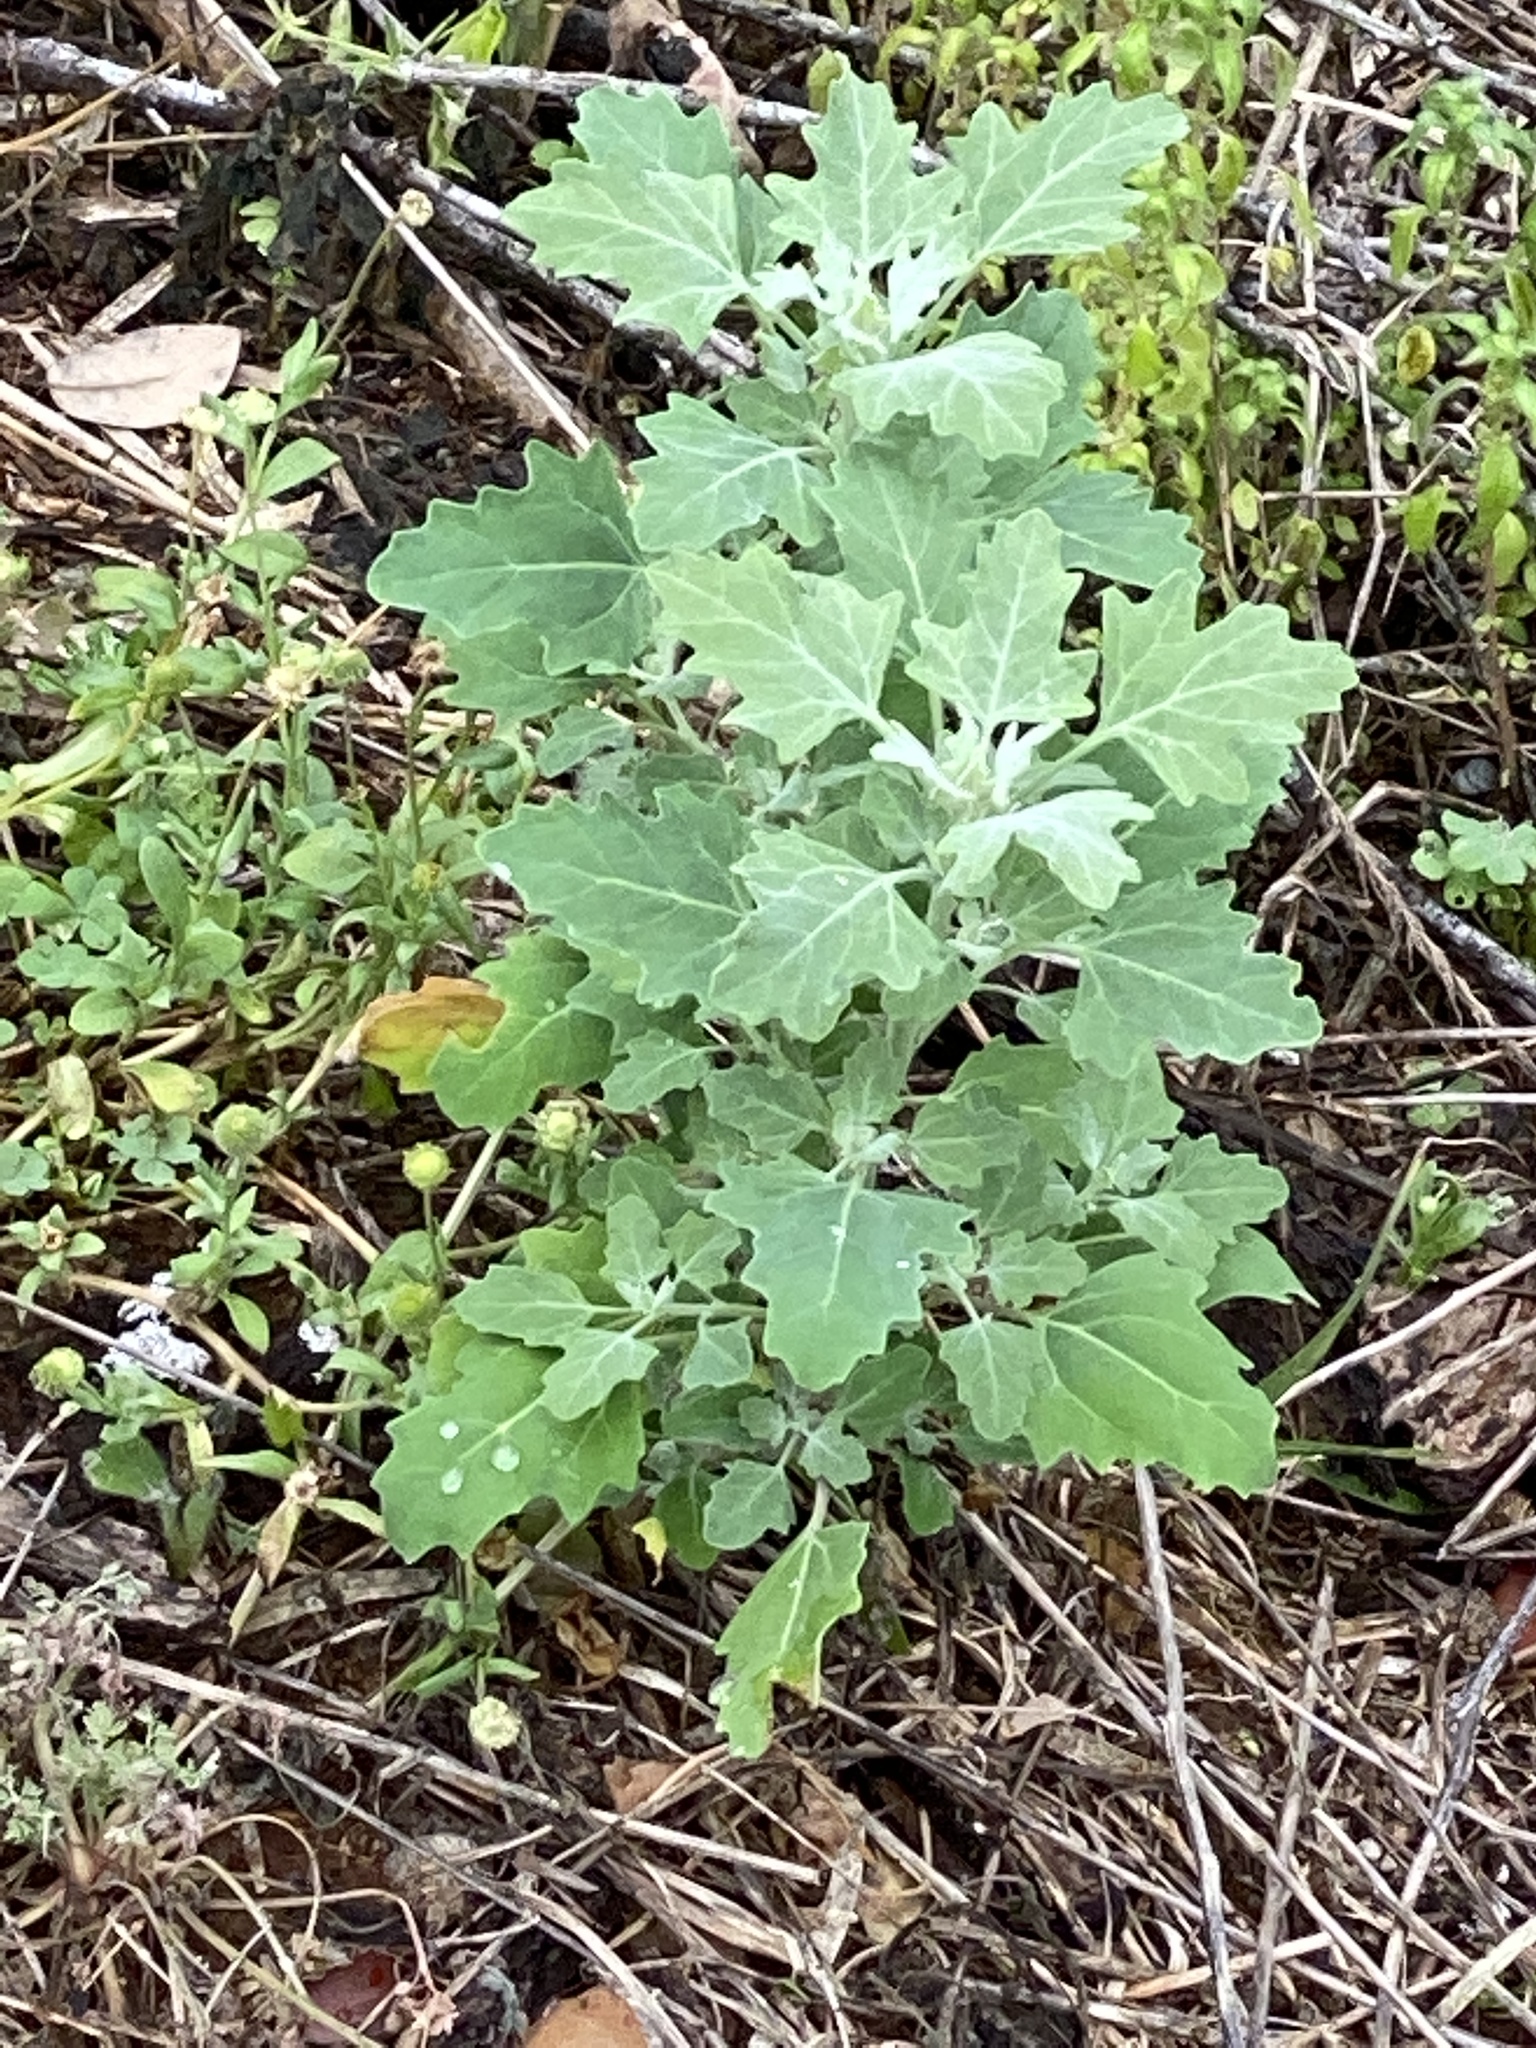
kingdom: Plantae
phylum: Tracheophyta
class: Magnoliopsida
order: Caryophyllales
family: Amaranthaceae
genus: Chenopodium
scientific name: Chenopodium album
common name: Fat-hen
